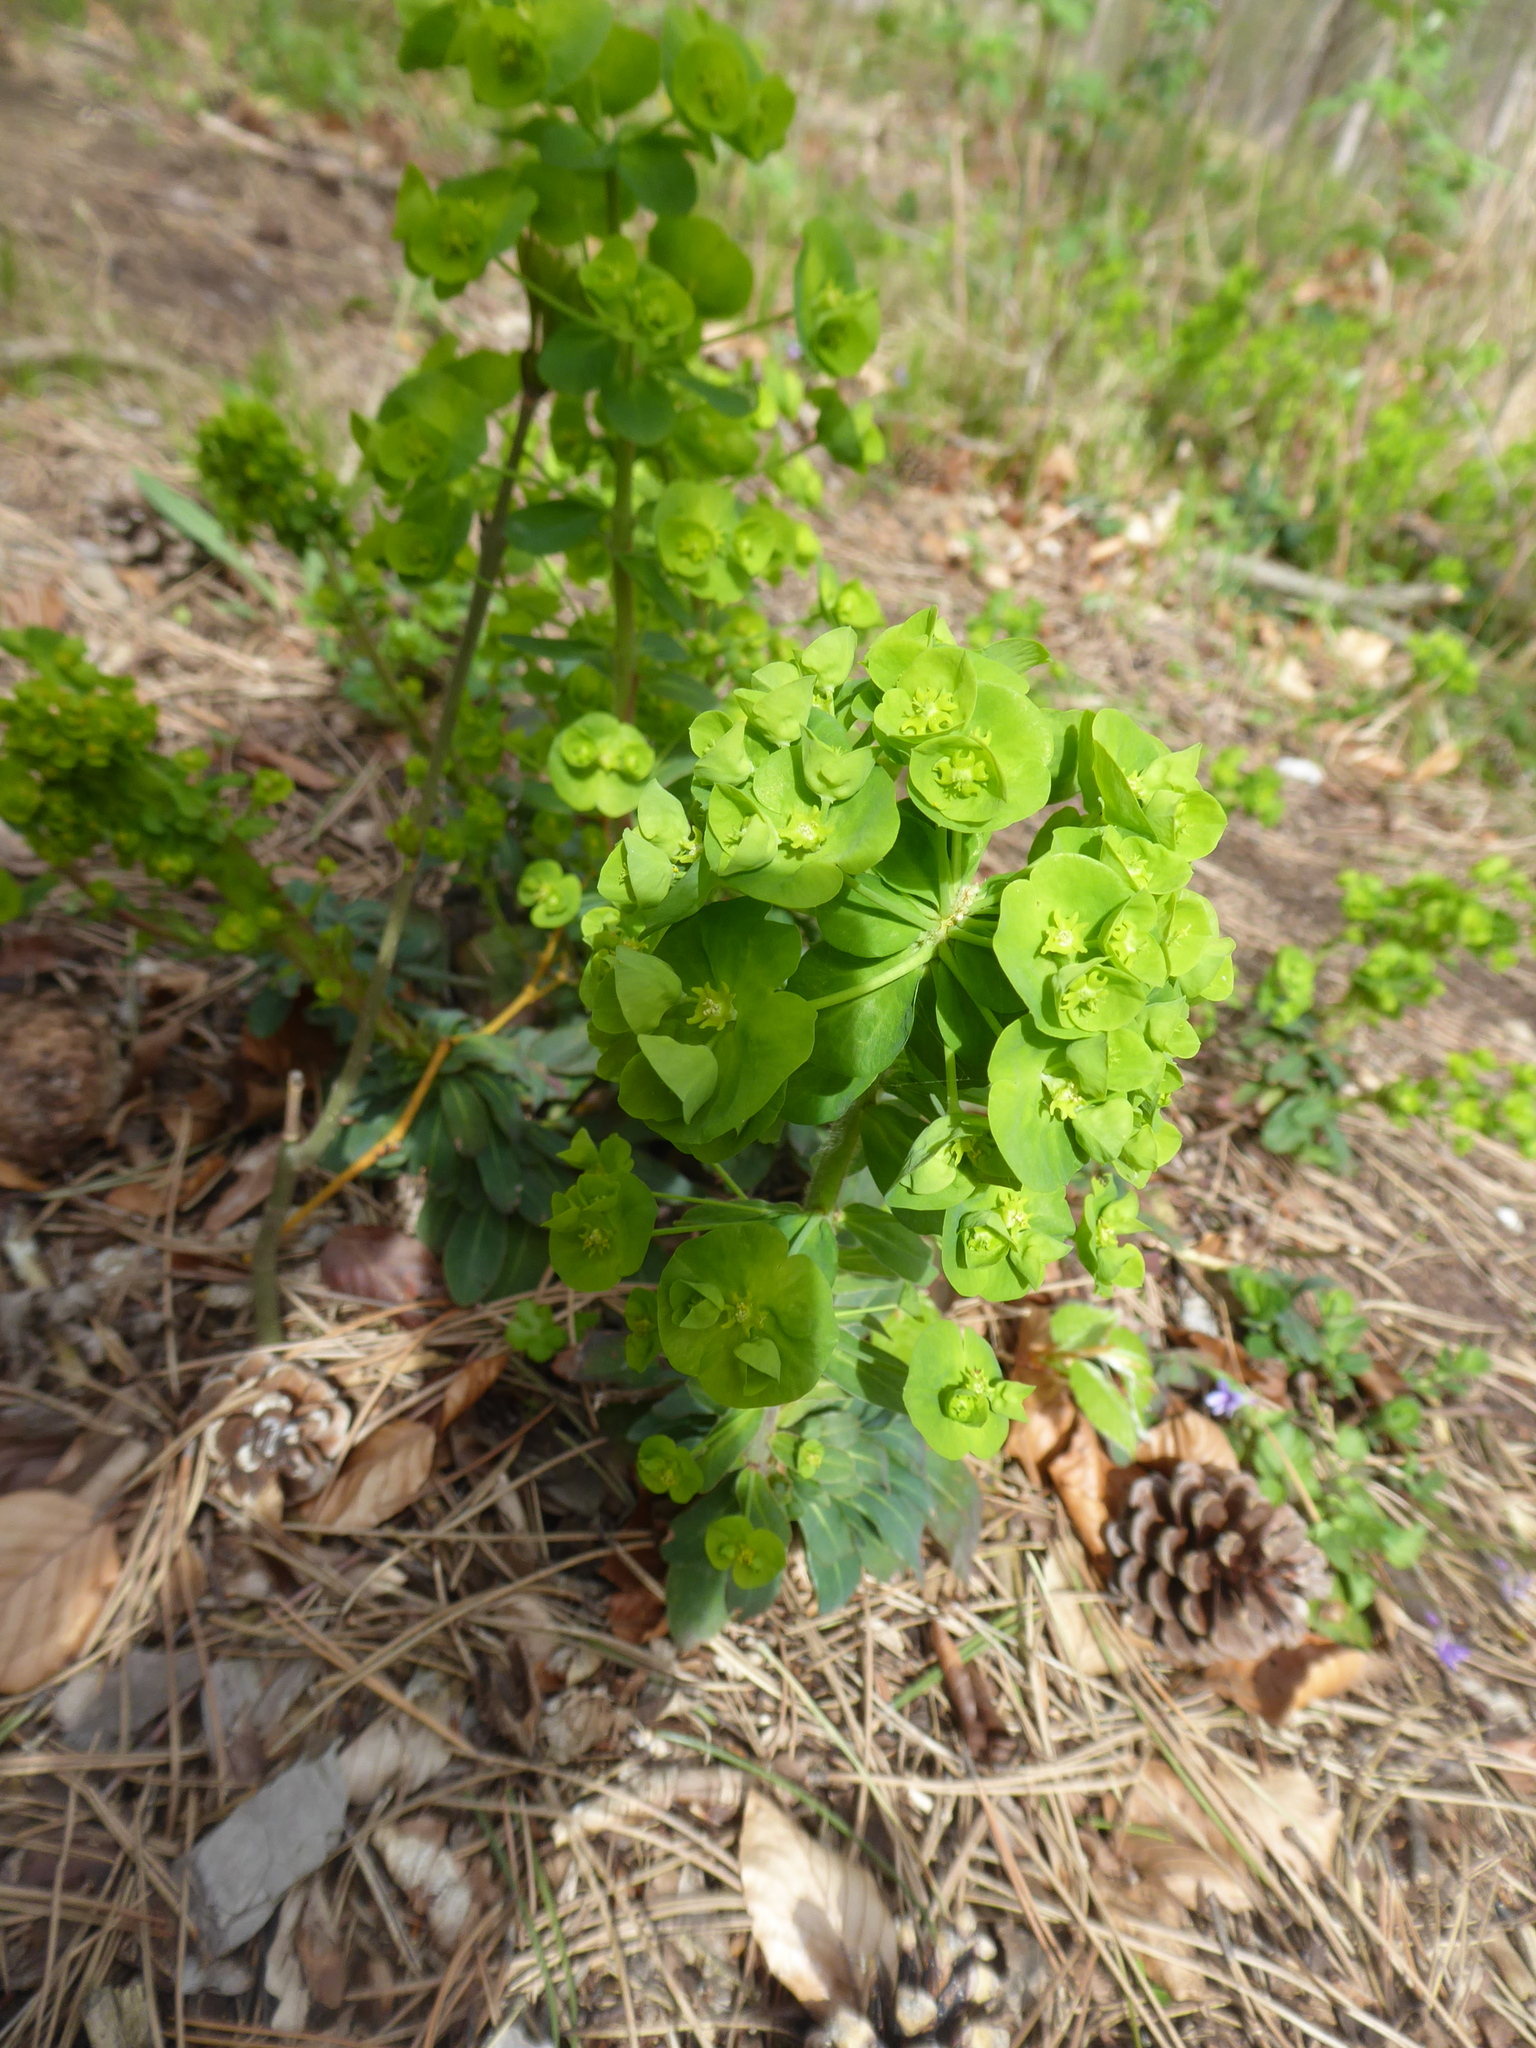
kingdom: Plantae
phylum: Tracheophyta
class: Magnoliopsida
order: Malpighiales
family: Euphorbiaceae
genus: Euphorbia
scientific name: Euphorbia amygdaloides
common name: Wood spurge
